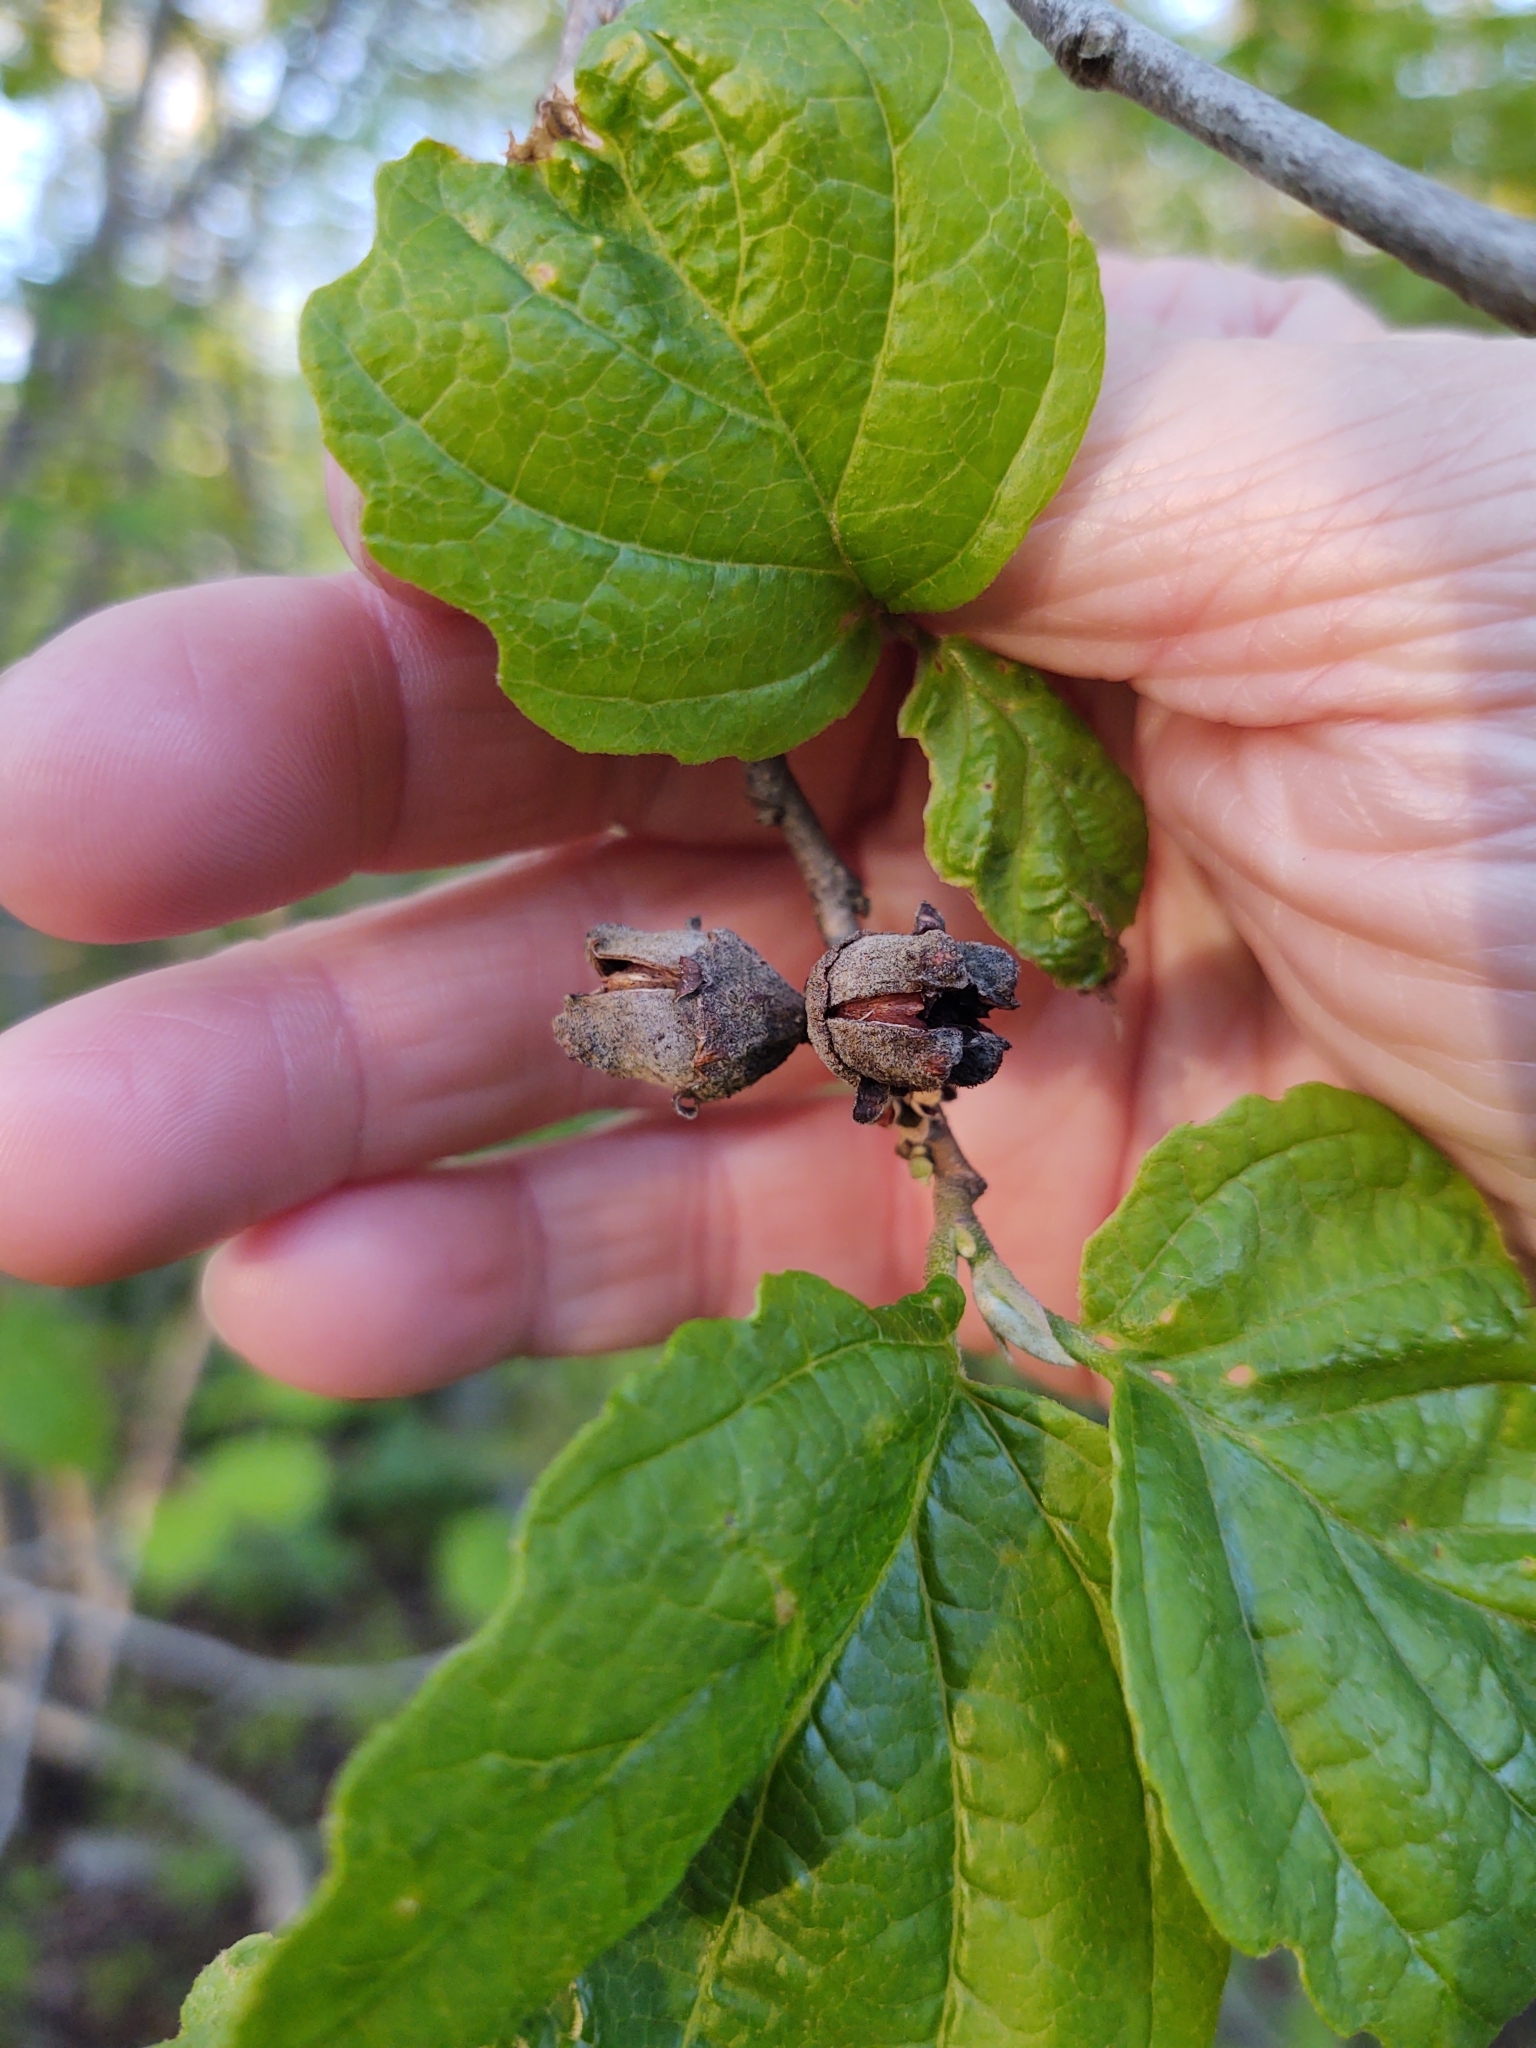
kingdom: Plantae
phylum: Tracheophyta
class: Magnoliopsida
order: Saxifragales
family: Hamamelidaceae
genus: Hamamelis
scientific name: Hamamelis virginiana
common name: Witch-hazel
